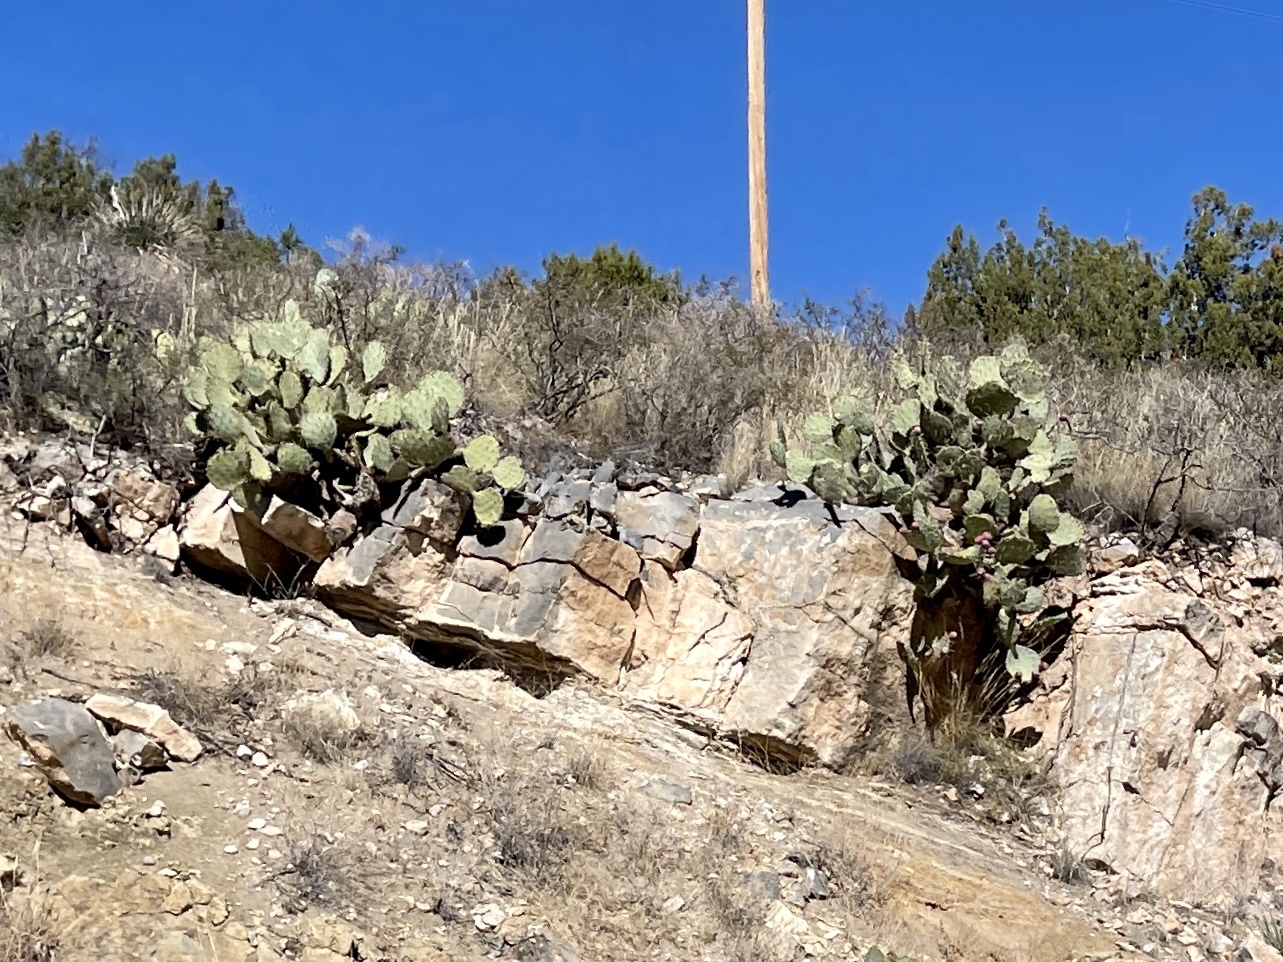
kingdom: Plantae
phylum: Tracheophyta
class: Magnoliopsida
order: Caryophyllales
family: Cactaceae
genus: Opuntia
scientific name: Opuntia engelmannii
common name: Cactus-apple
